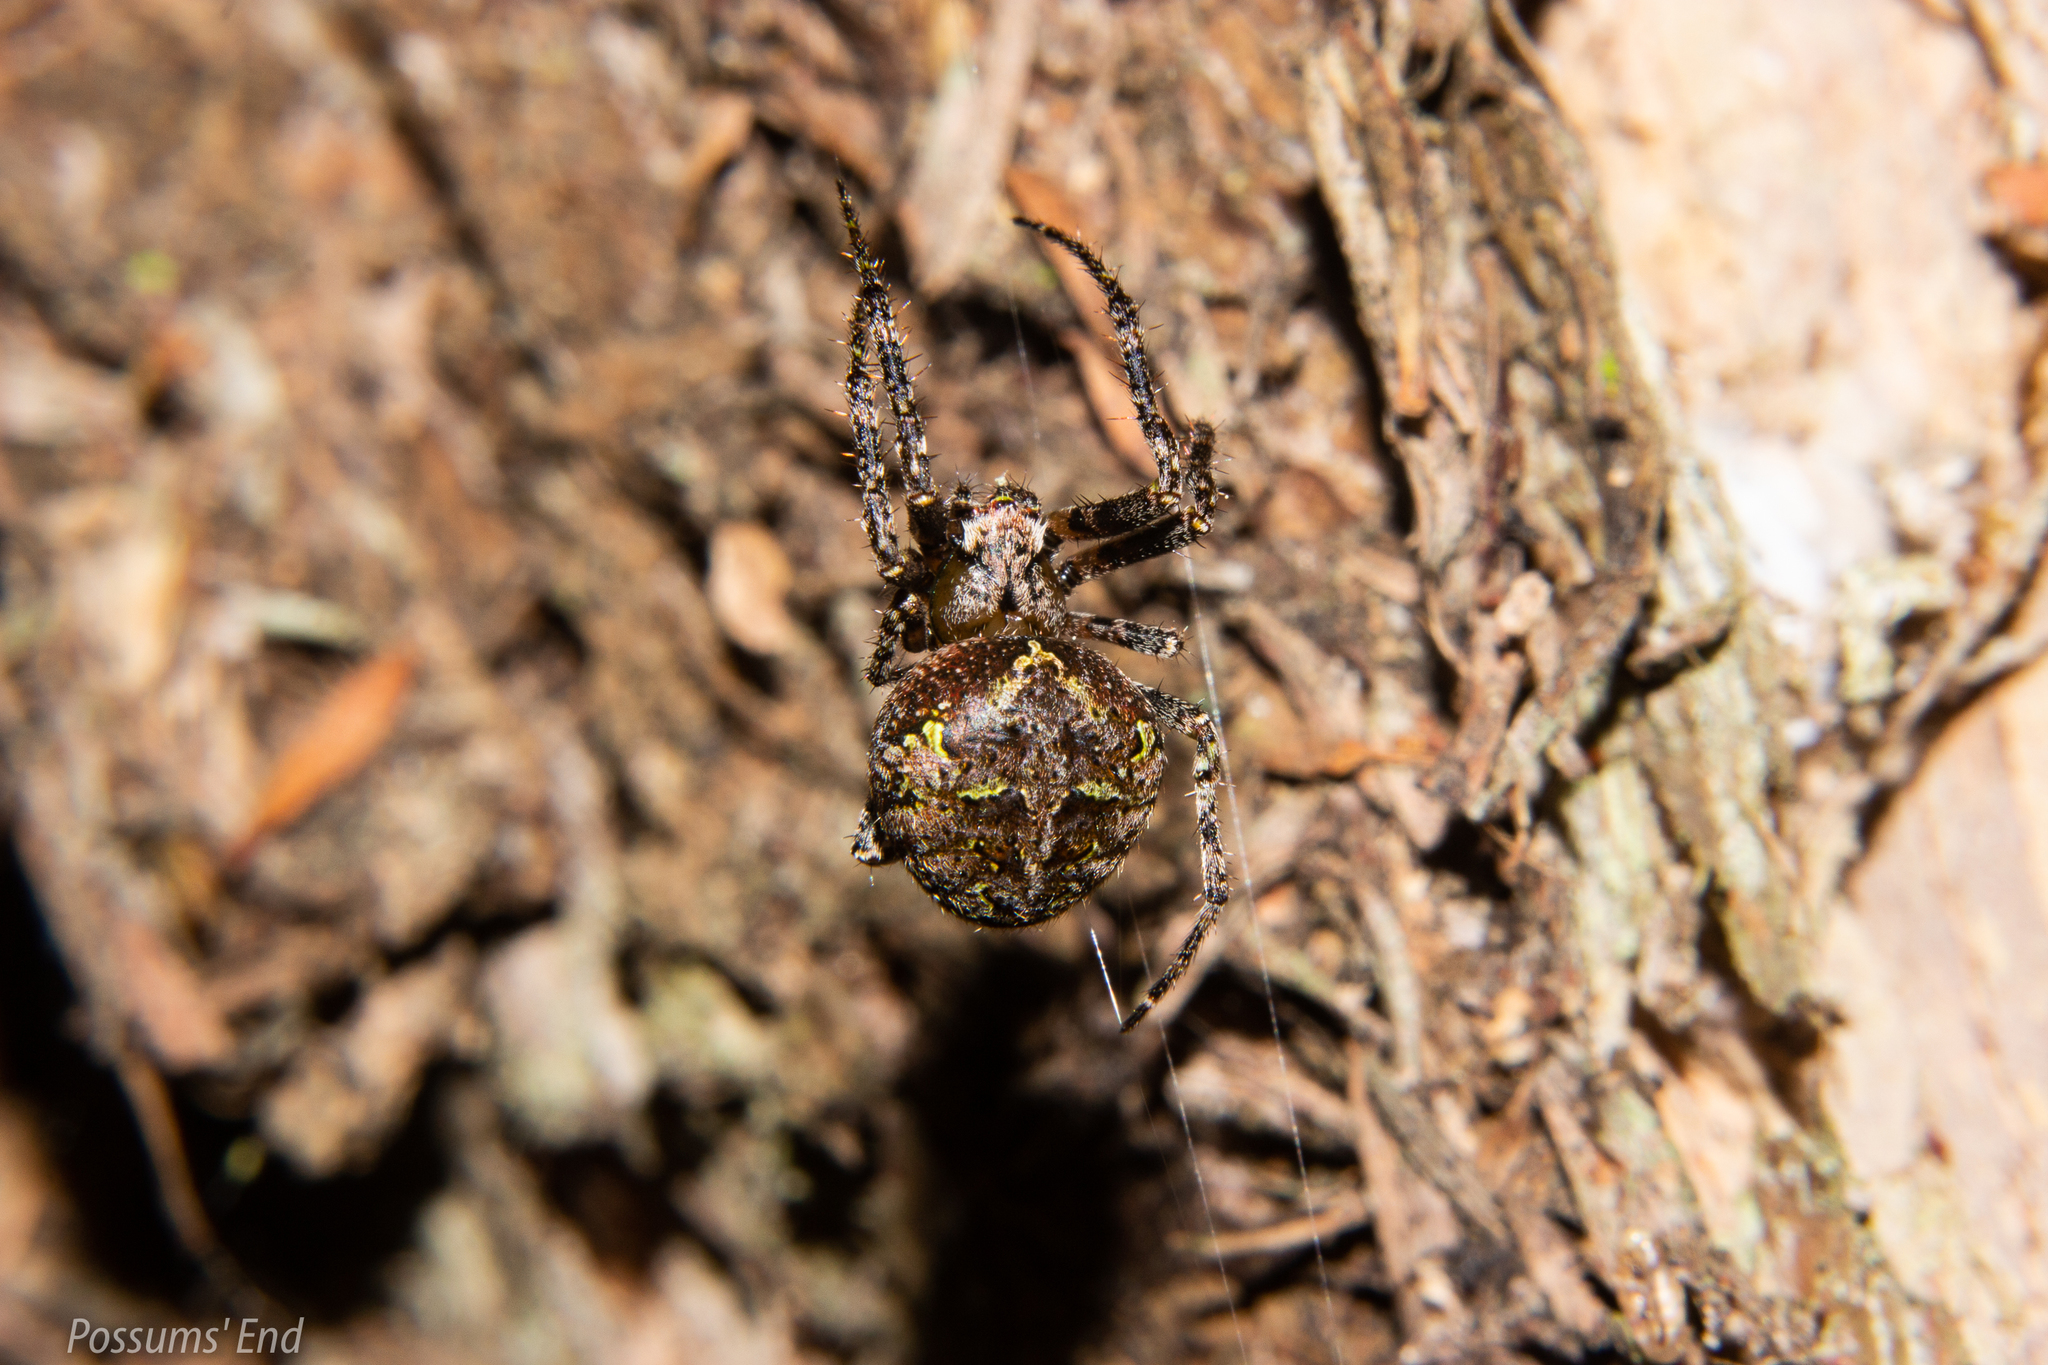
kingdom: Animalia
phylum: Arthropoda
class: Arachnida
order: Araneae
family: Araneidae
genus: Cryptaranea
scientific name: Cryptaranea venustula
